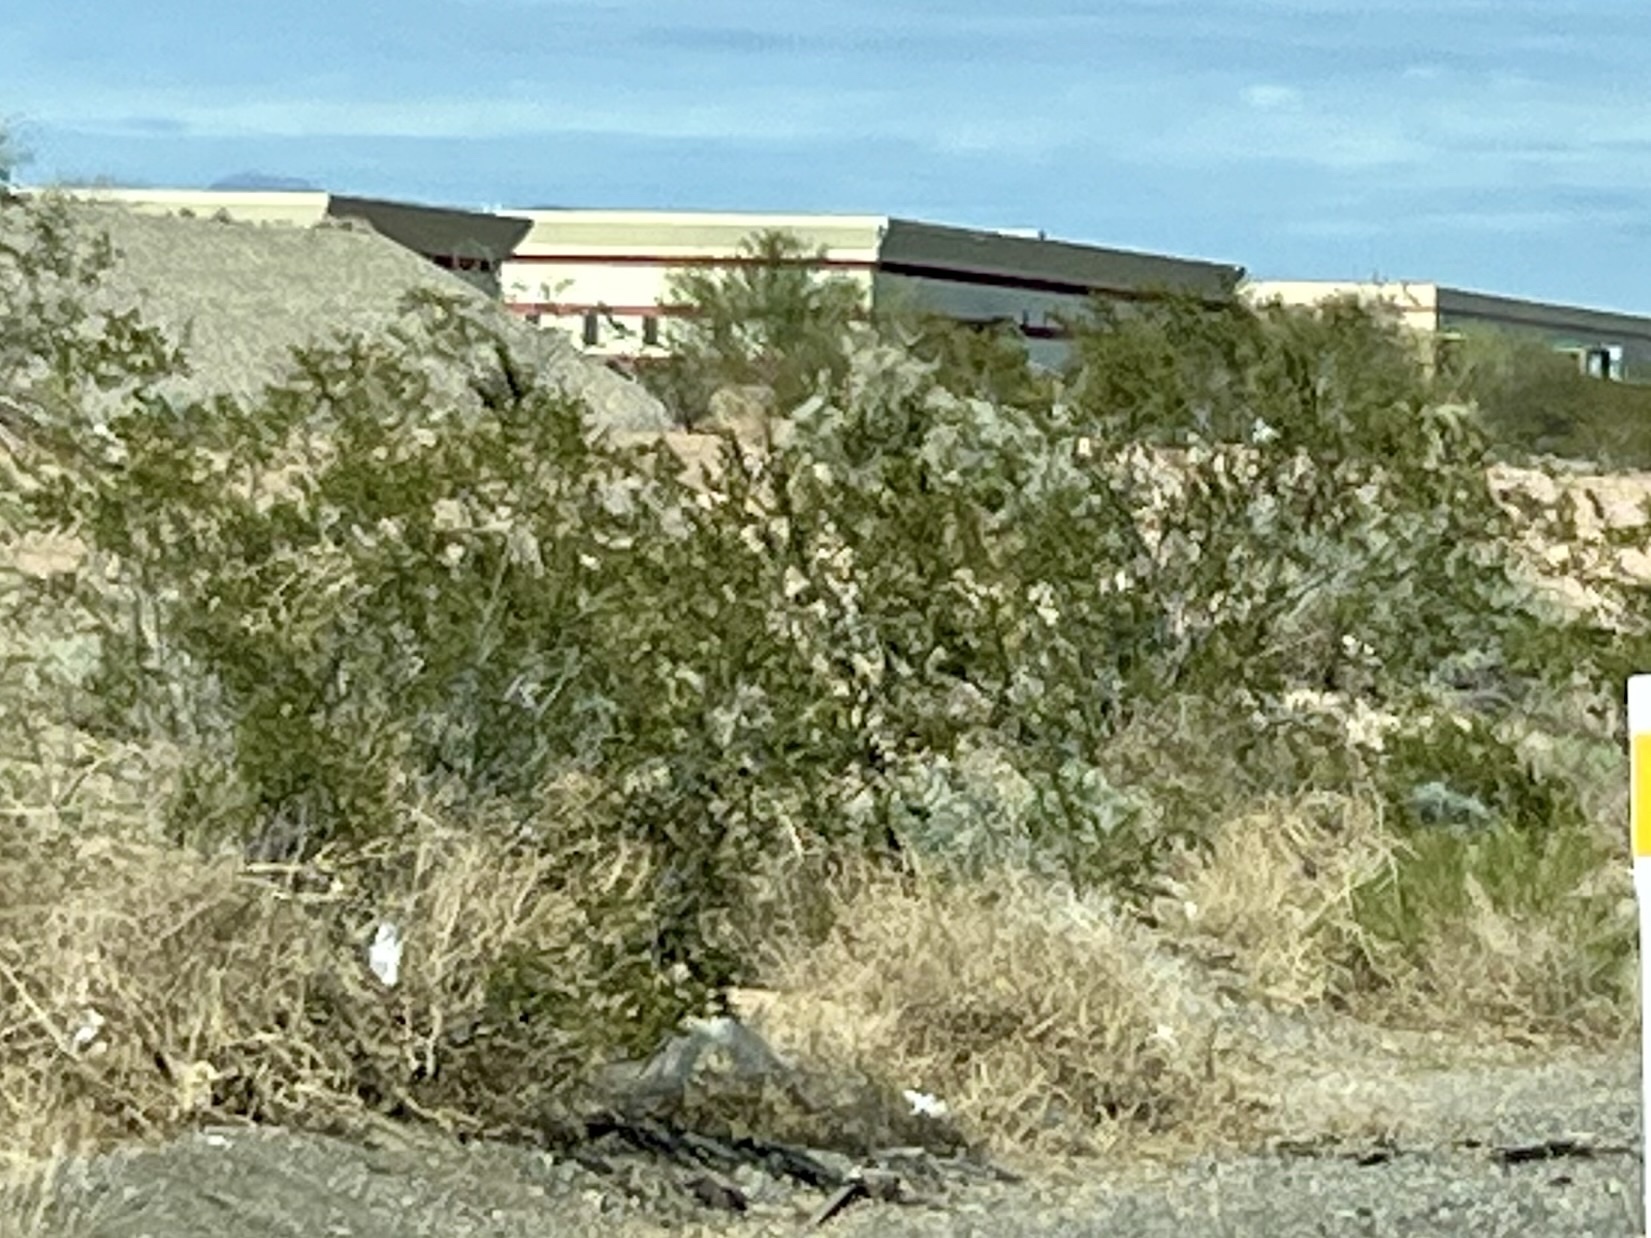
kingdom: Plantae
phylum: Tracheophyta
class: Magnoliopsida
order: Zygophyllales
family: Zygophyllaceae
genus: Larrea
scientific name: Larrea tridentata
